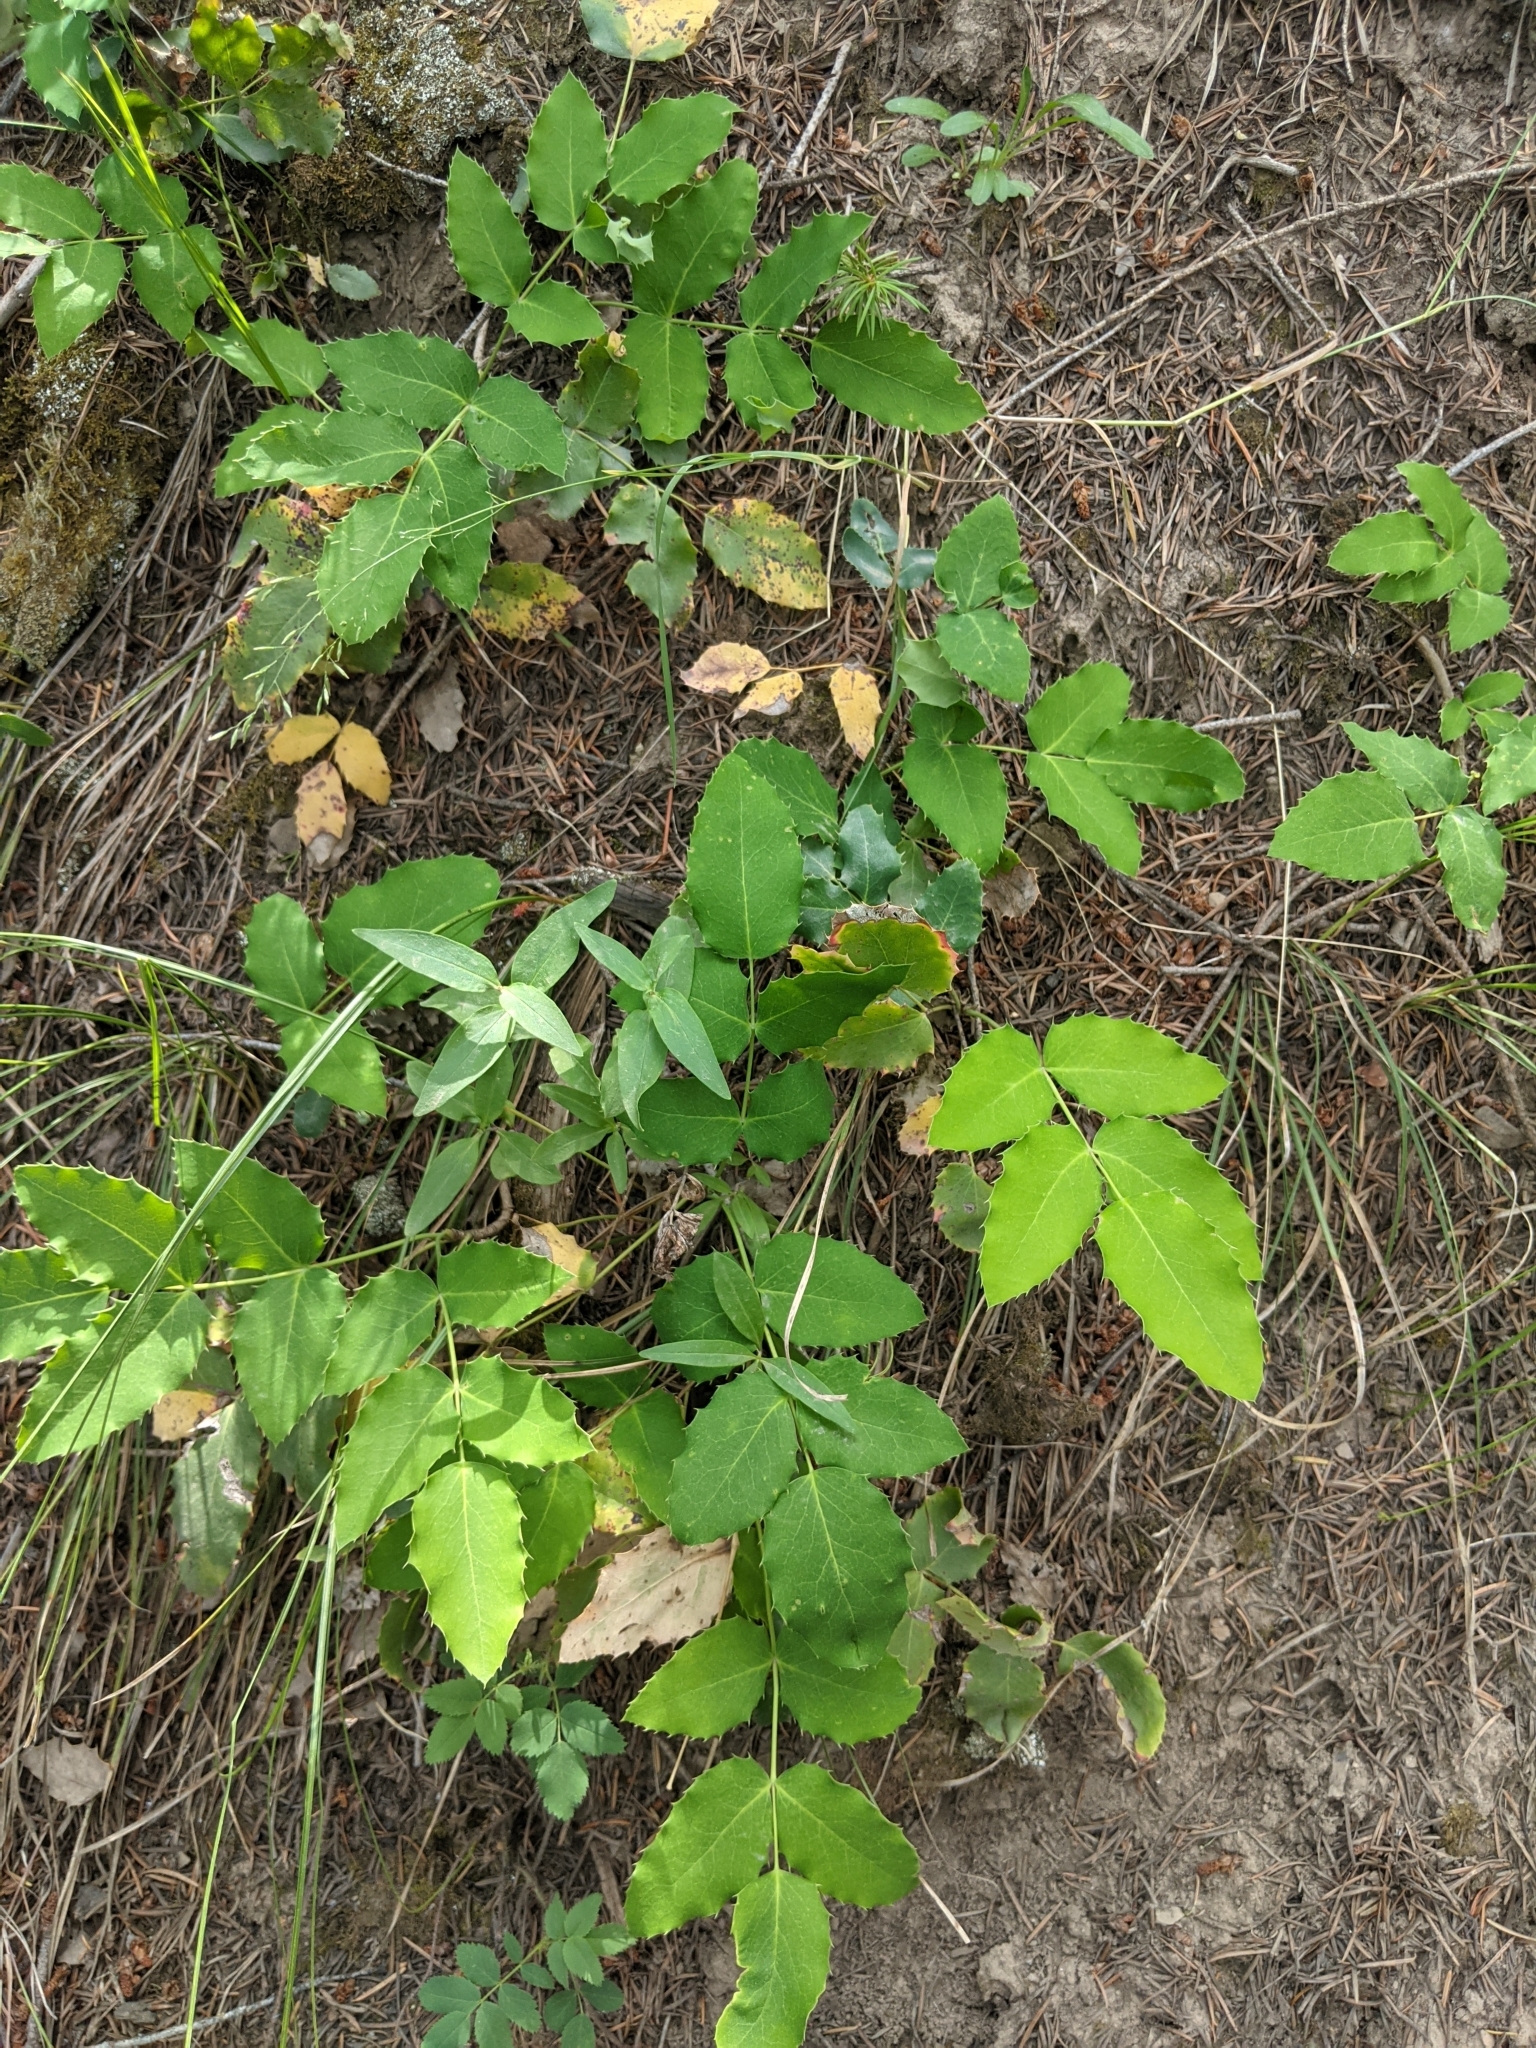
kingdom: Plantae
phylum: Tracheophyta
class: Magnoliopsida
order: Ranunculales
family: Berberidaceae
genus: Mahonia
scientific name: Mahonia repens
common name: Creeping oregon-grape
